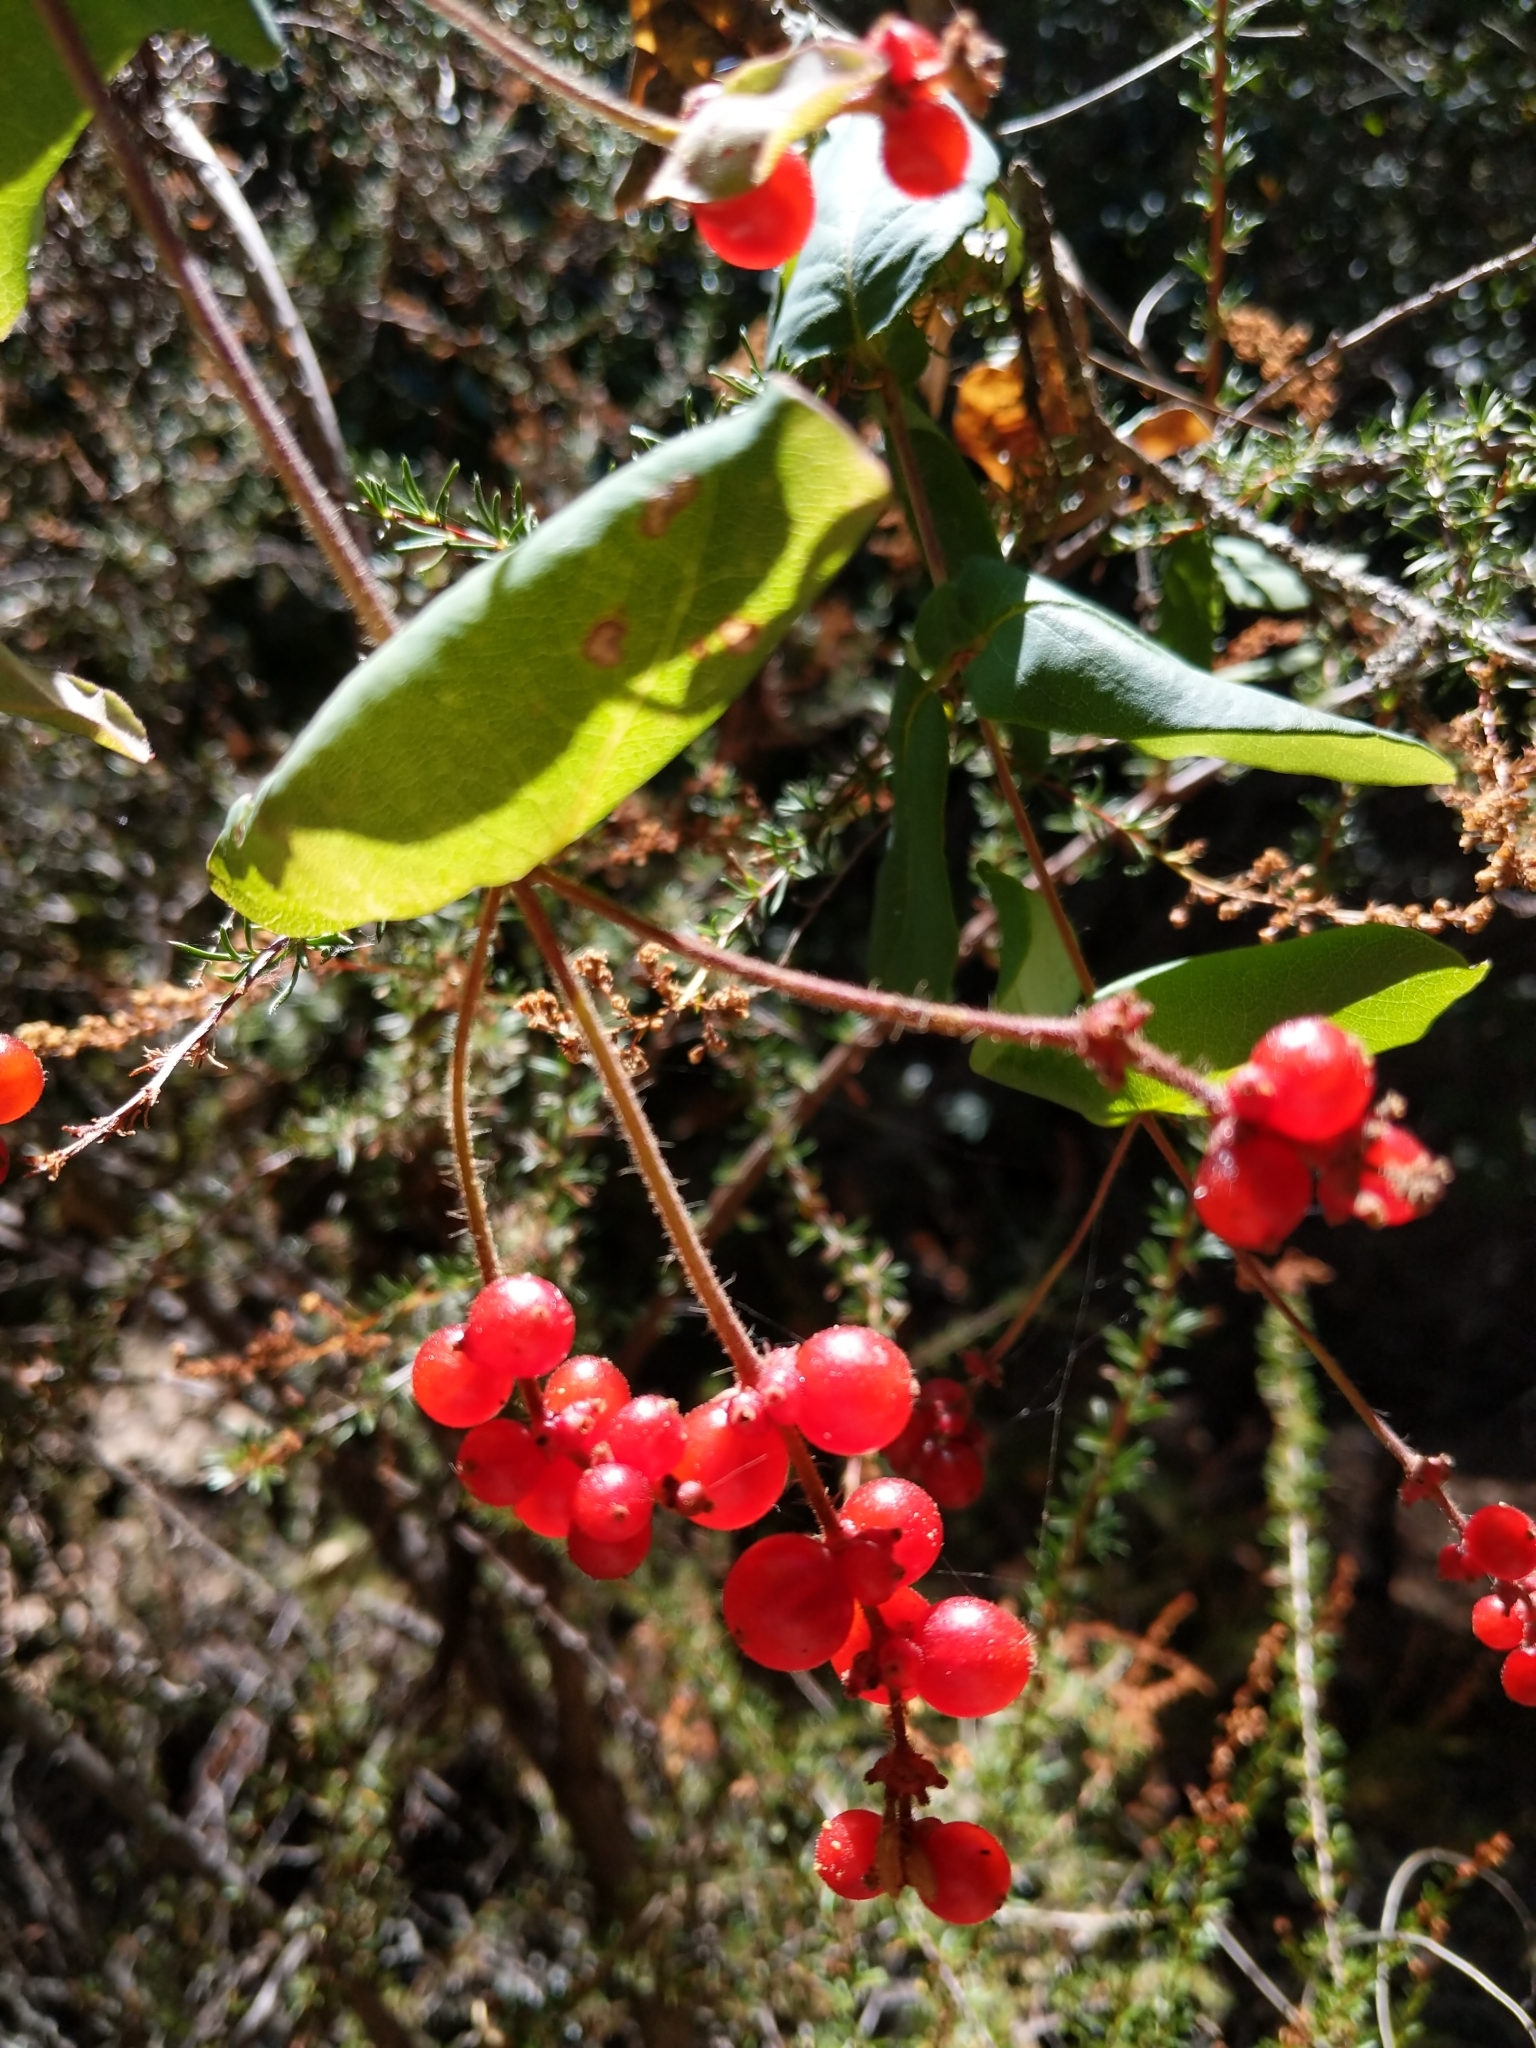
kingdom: Plantae
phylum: Tracheophyta
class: Magnoliopsida
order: Dipsacales
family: Caprifoliaceae
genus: Lonicera
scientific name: Lonicera hispidula
